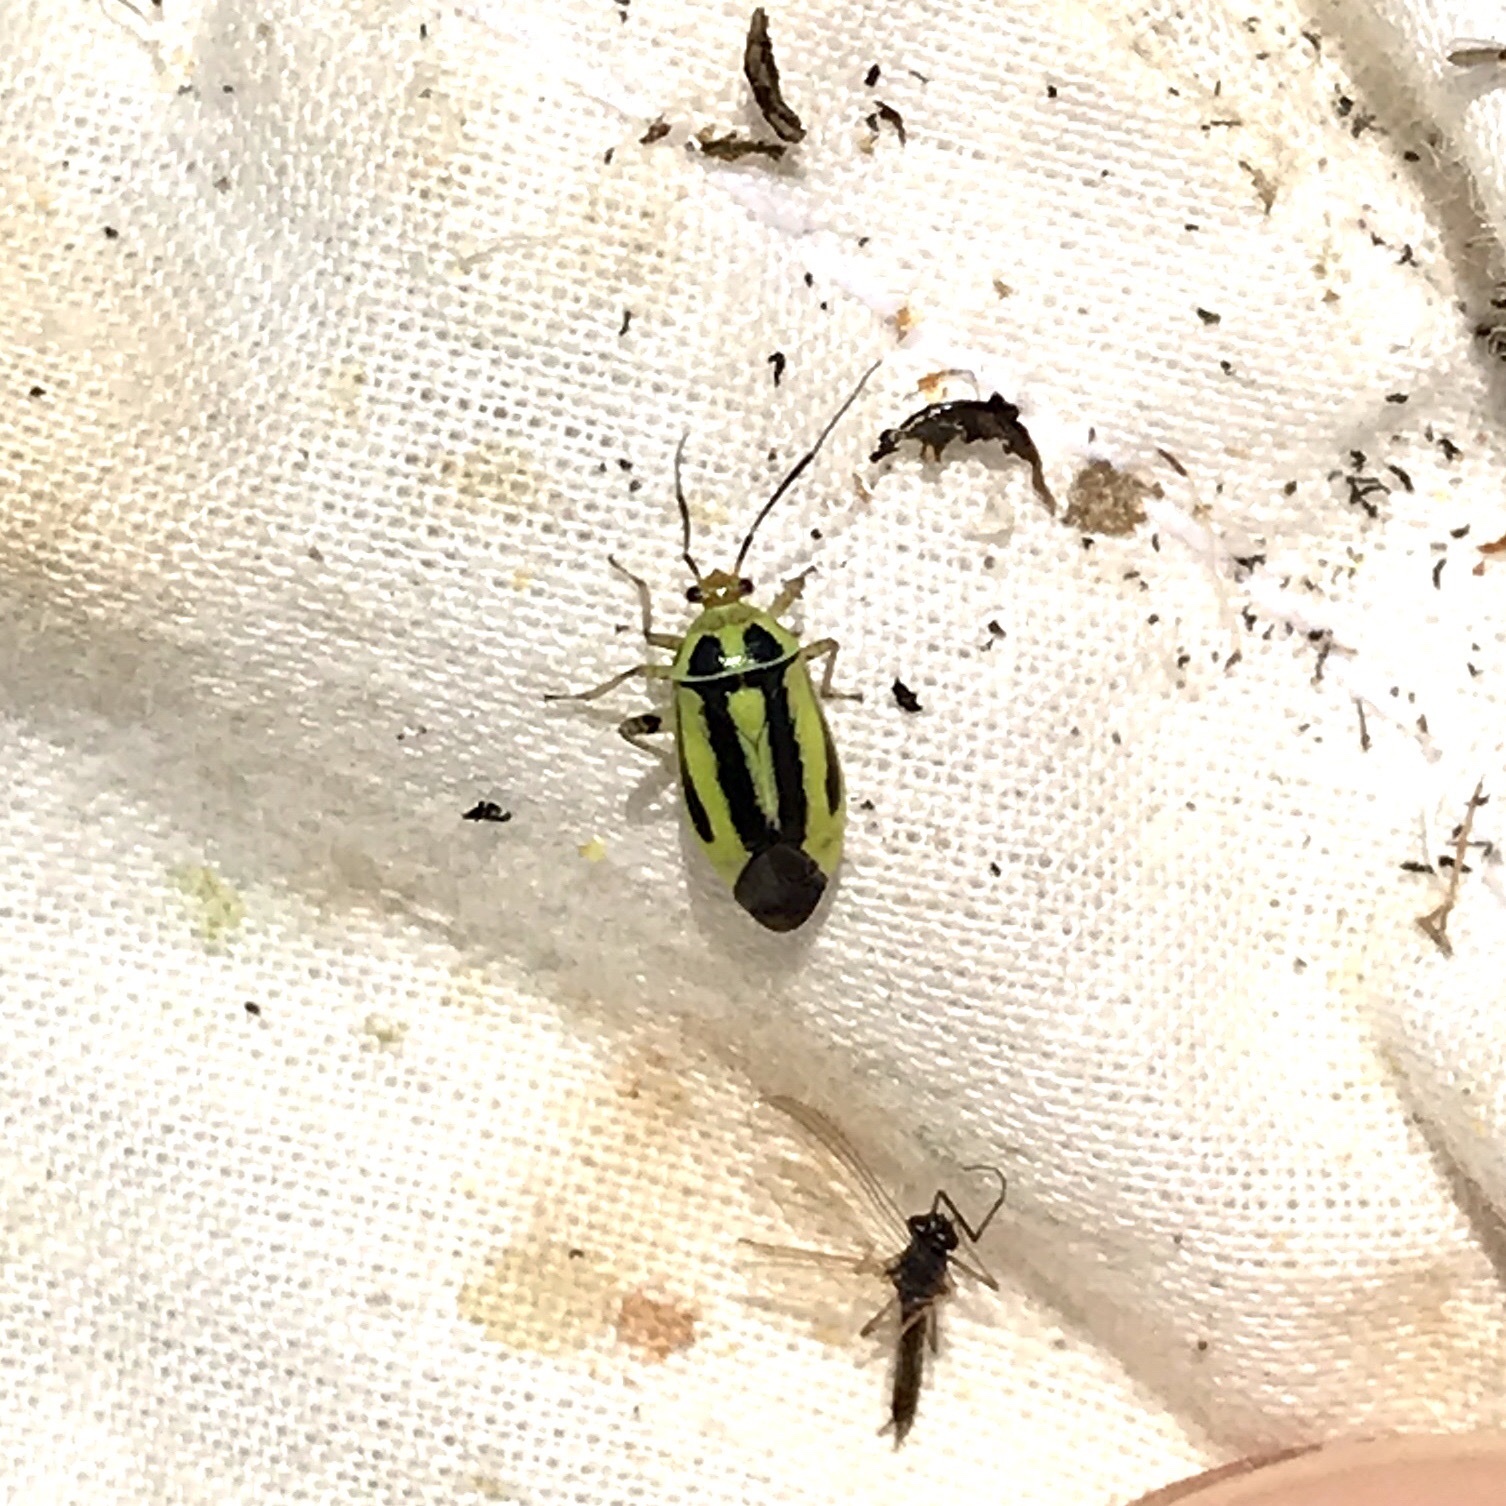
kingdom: Animalia
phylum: Arthropoda
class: Insecta
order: Hemiptera
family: Miridae
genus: Poecilocapsus
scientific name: Poecilocapsus lineatus
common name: Four-lined plant bug
